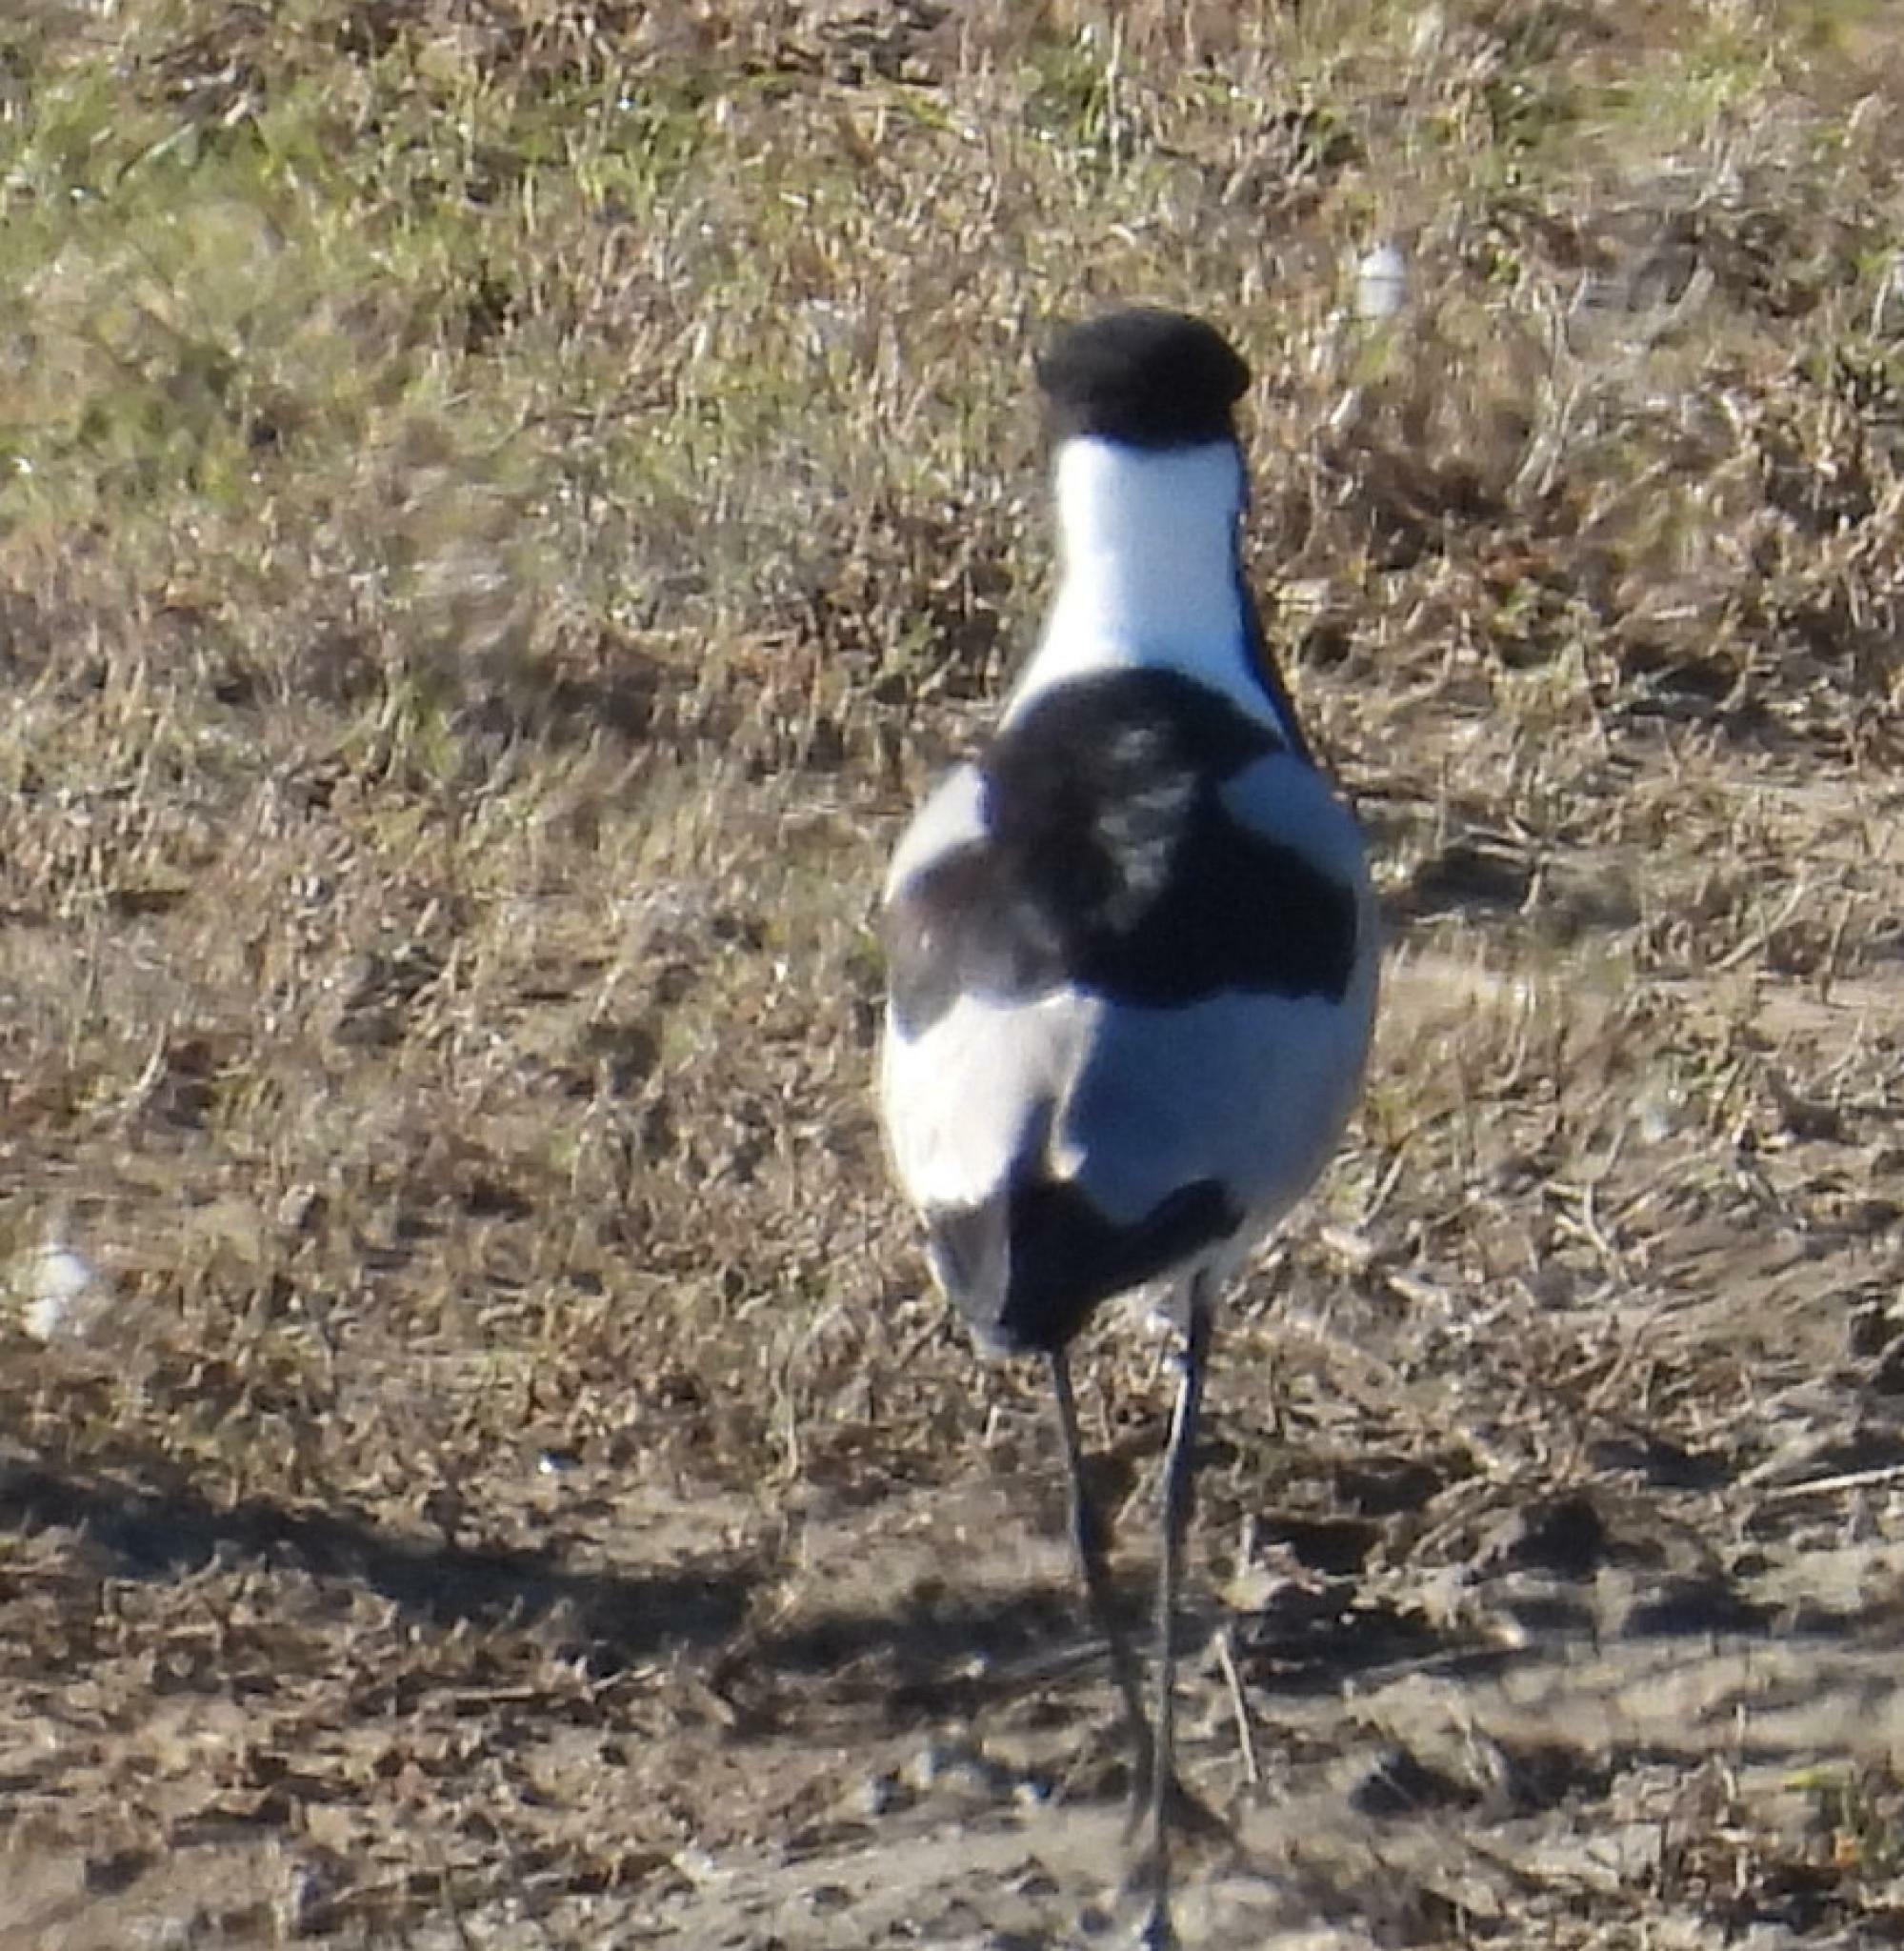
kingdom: Animalia
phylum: Chordata
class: Aves
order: Charadriiformes
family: Charadriidae
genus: Vanellus
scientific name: Vanellus armatus
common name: Blacksmith lapwing
